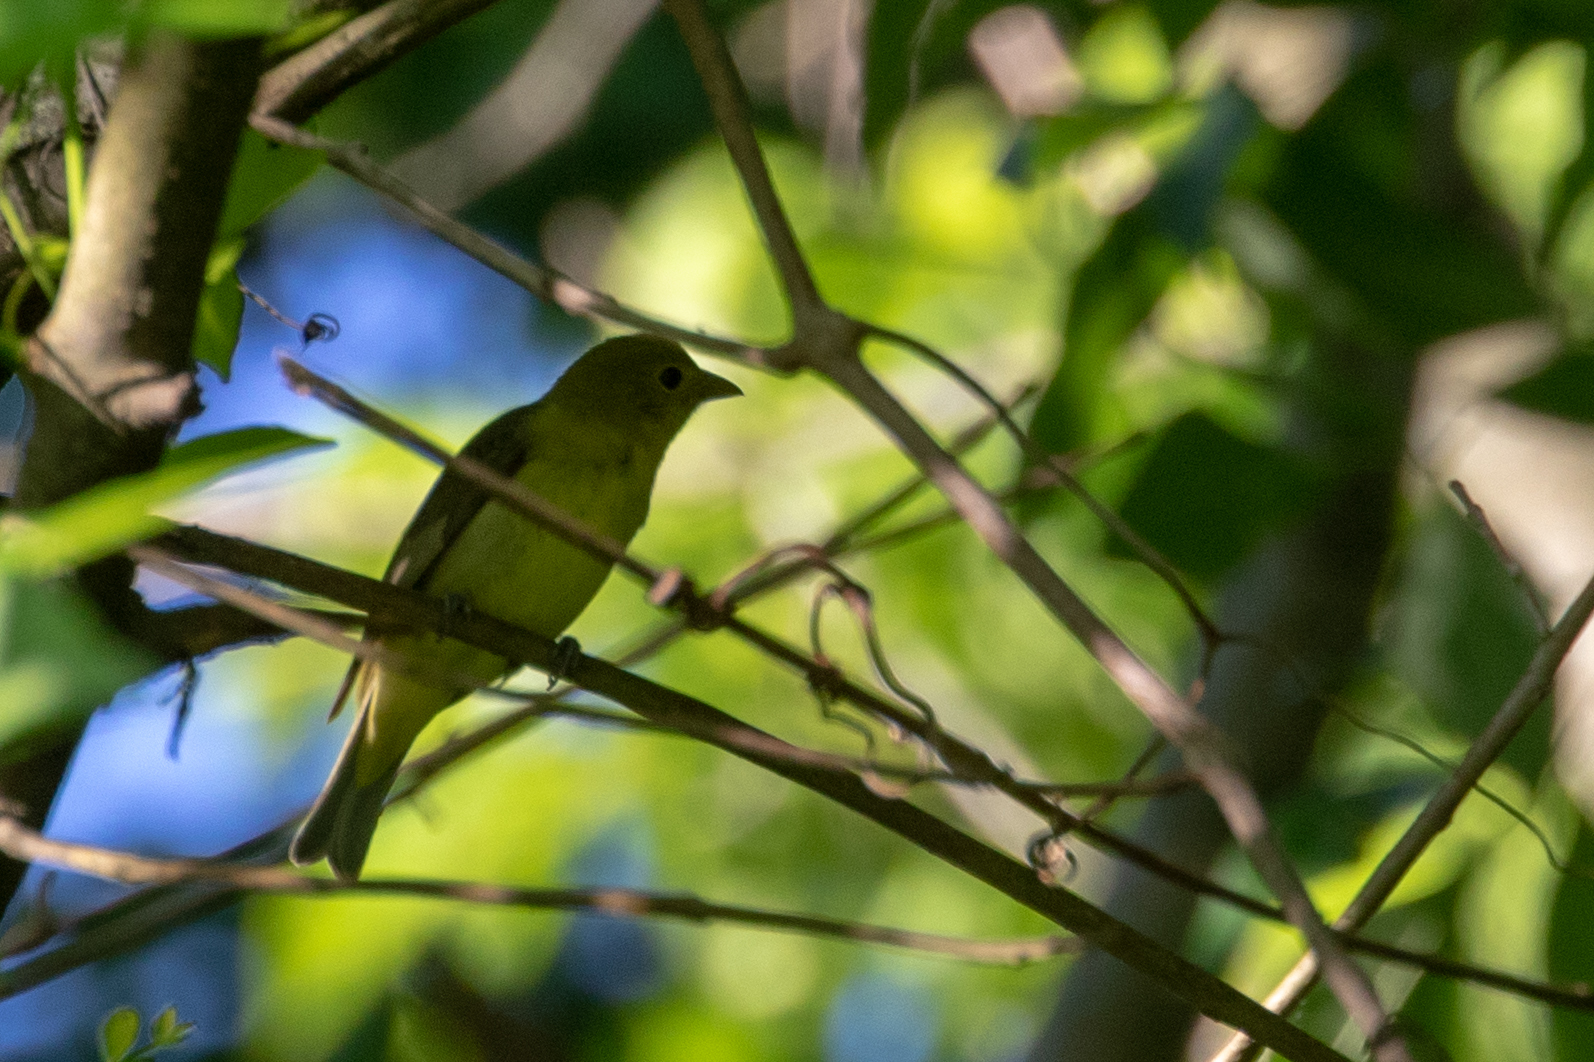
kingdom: Animalia
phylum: Chordata
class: Aves
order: Passeriformes
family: Cardinalidae
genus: Piranga
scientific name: Piranga olivacea
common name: Scarlet tanager
